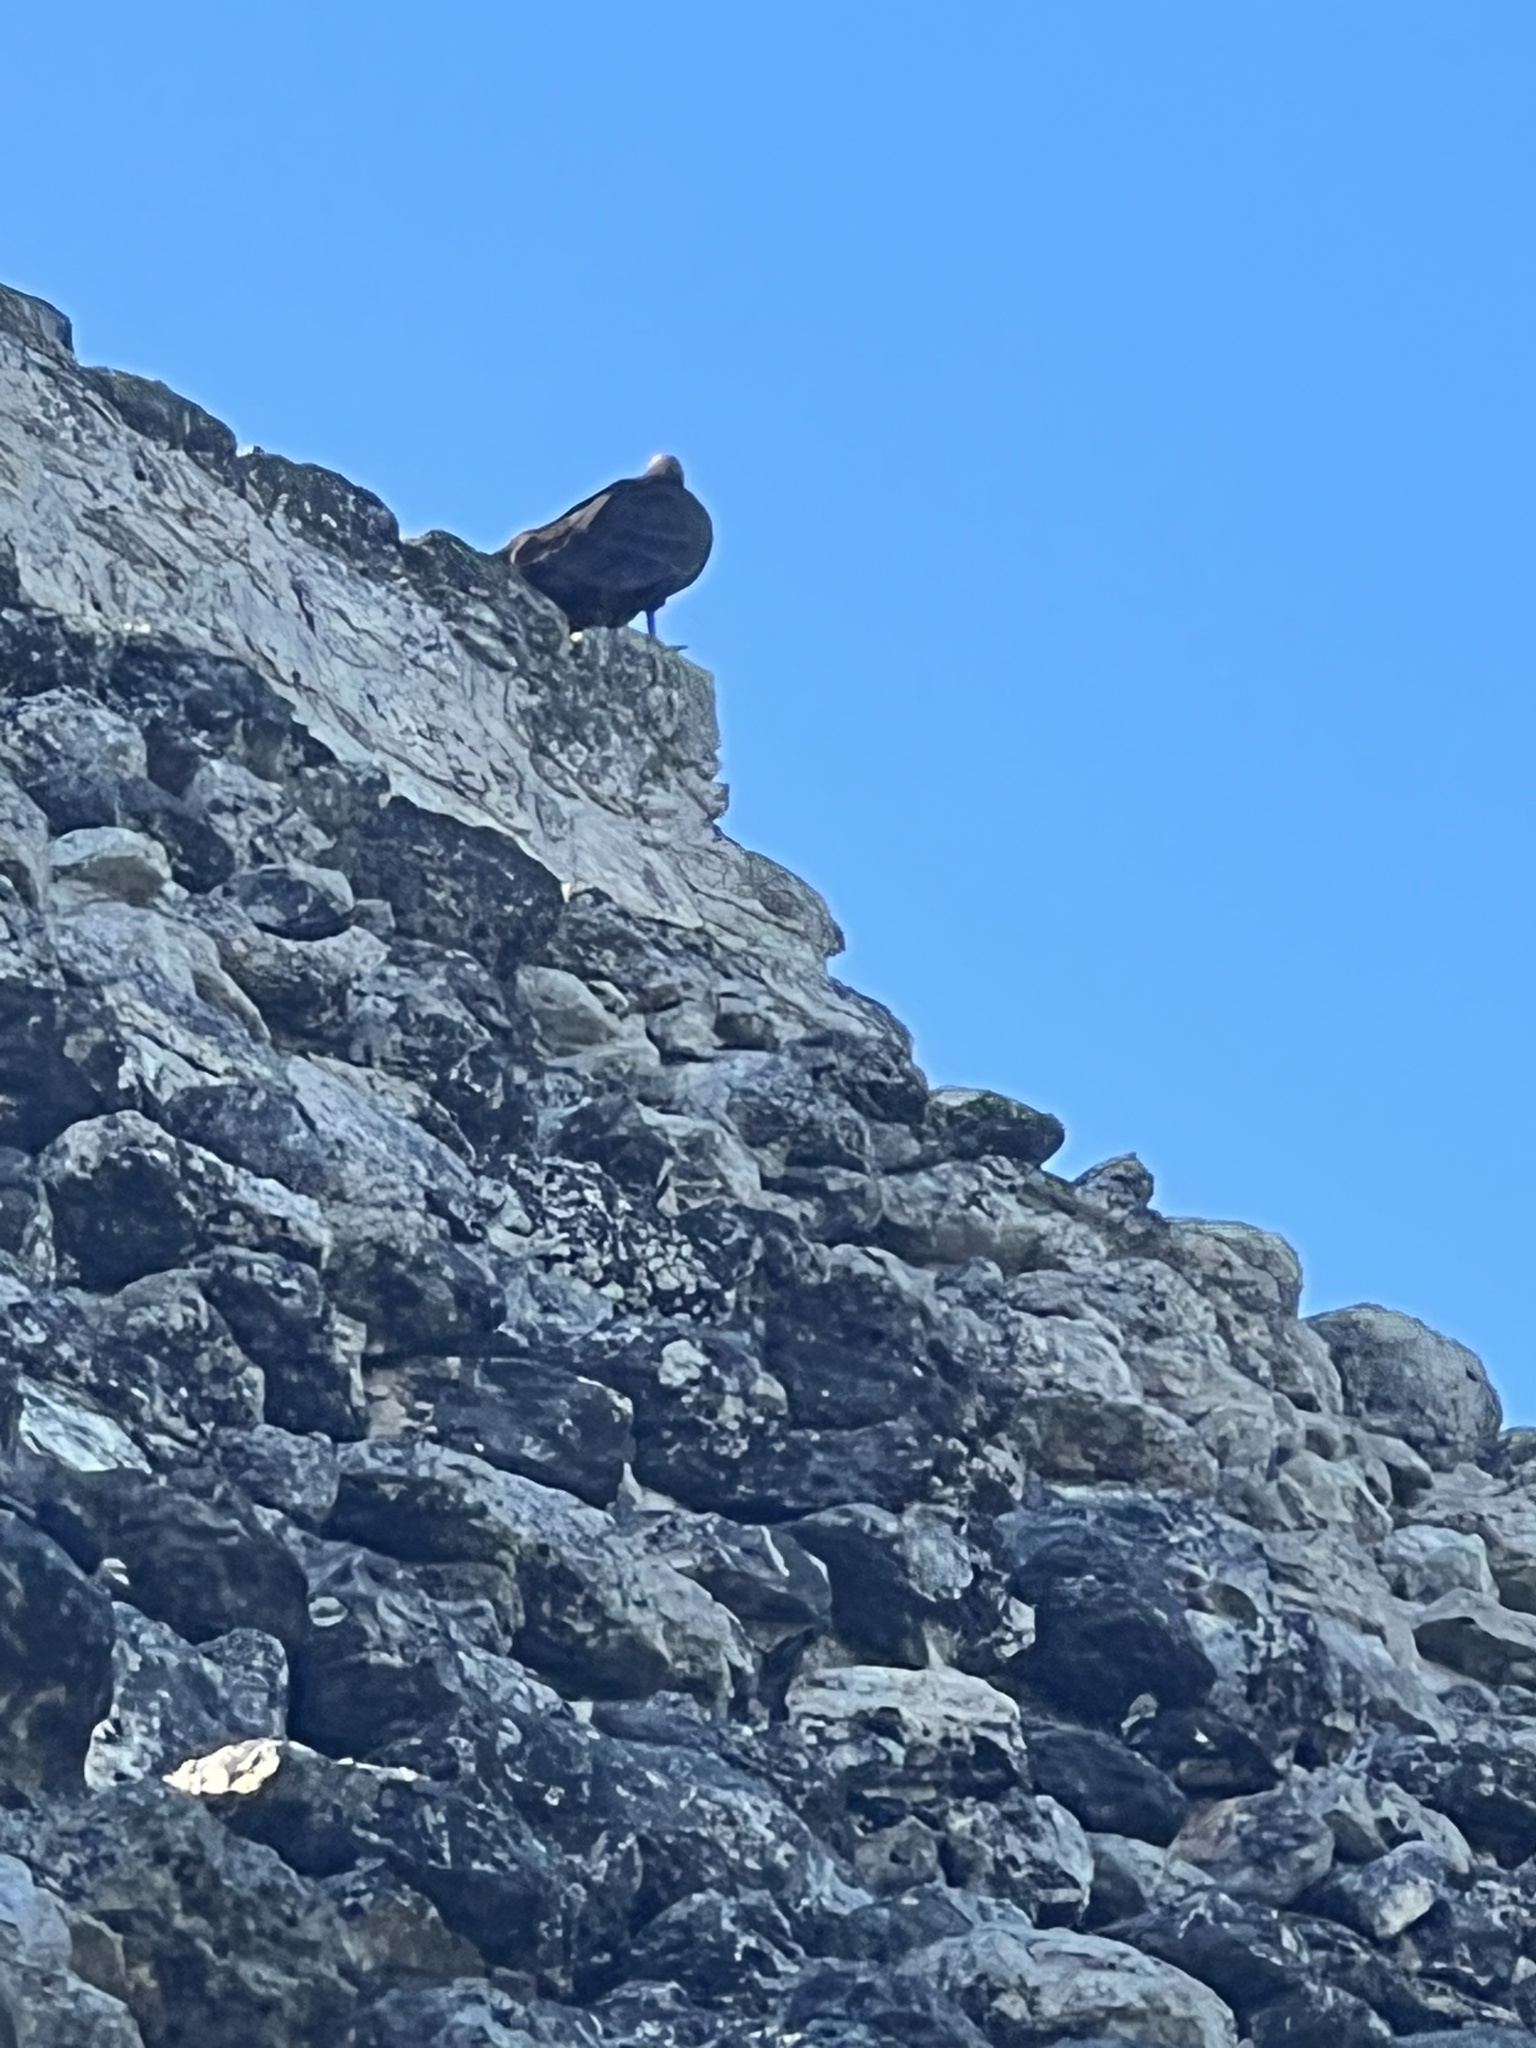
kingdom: Animalia
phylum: Chordata
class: Aves
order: Accipitriformes
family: Cathartidae
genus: Cathartes
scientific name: Cathartes aura
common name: Turkey vulture
